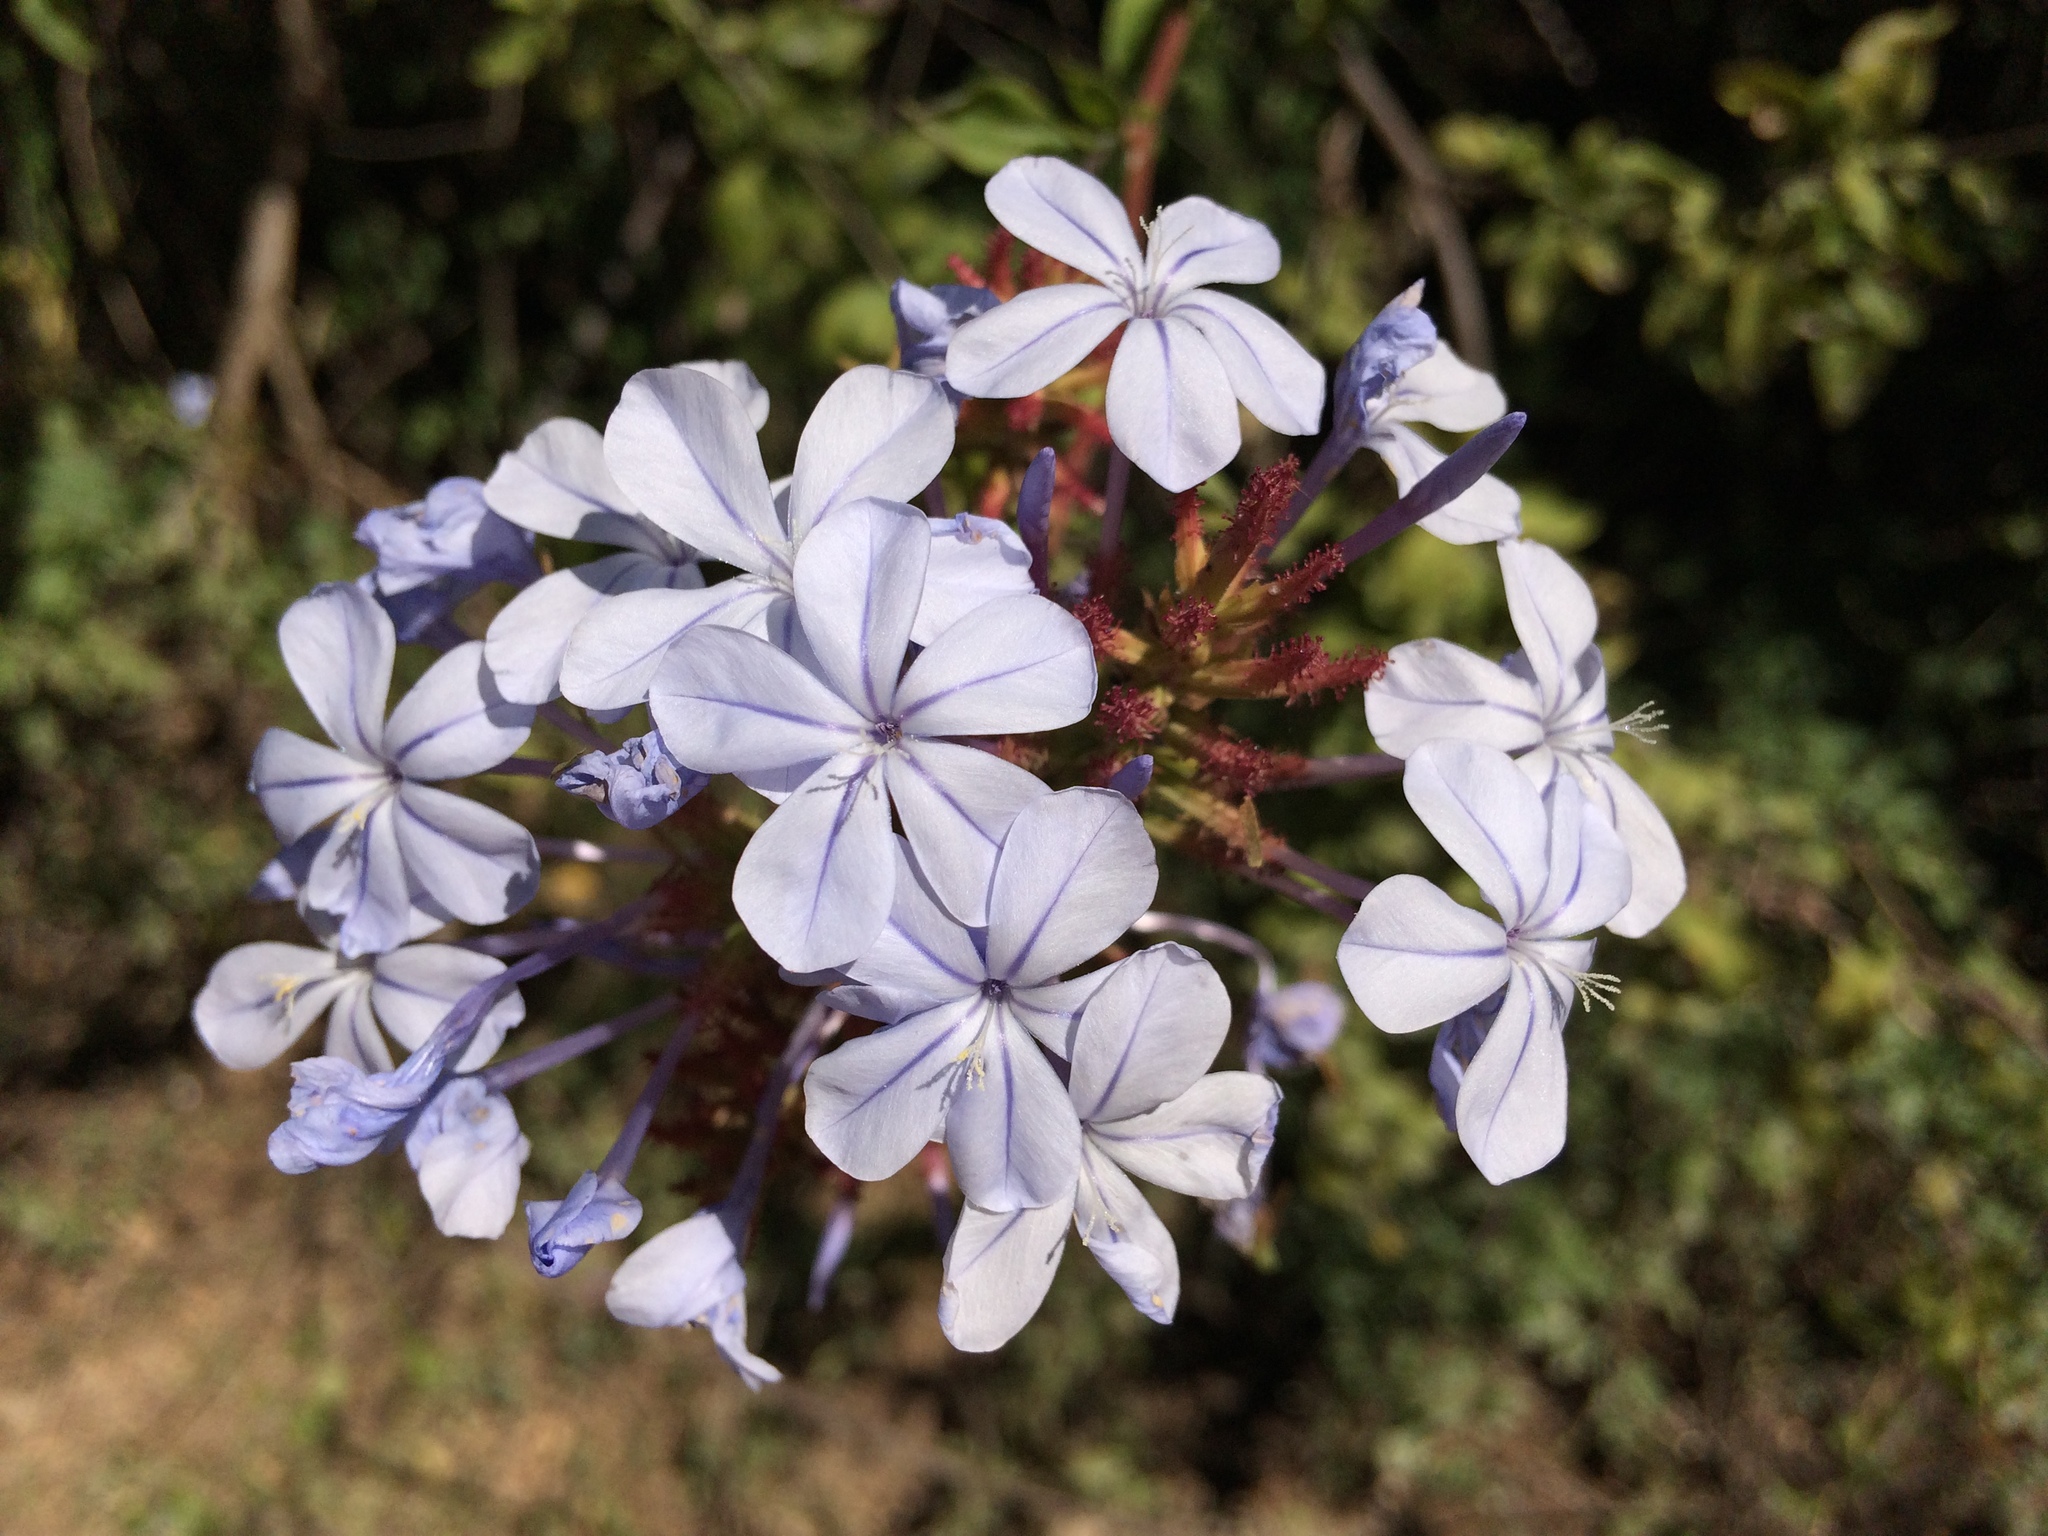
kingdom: Plantae
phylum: Tracheophyta
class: Magnoliopsida
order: Caryophyllales
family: Plumbaginaceae
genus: Plumbago
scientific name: Plumbago auriculata
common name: Cape leadwort
